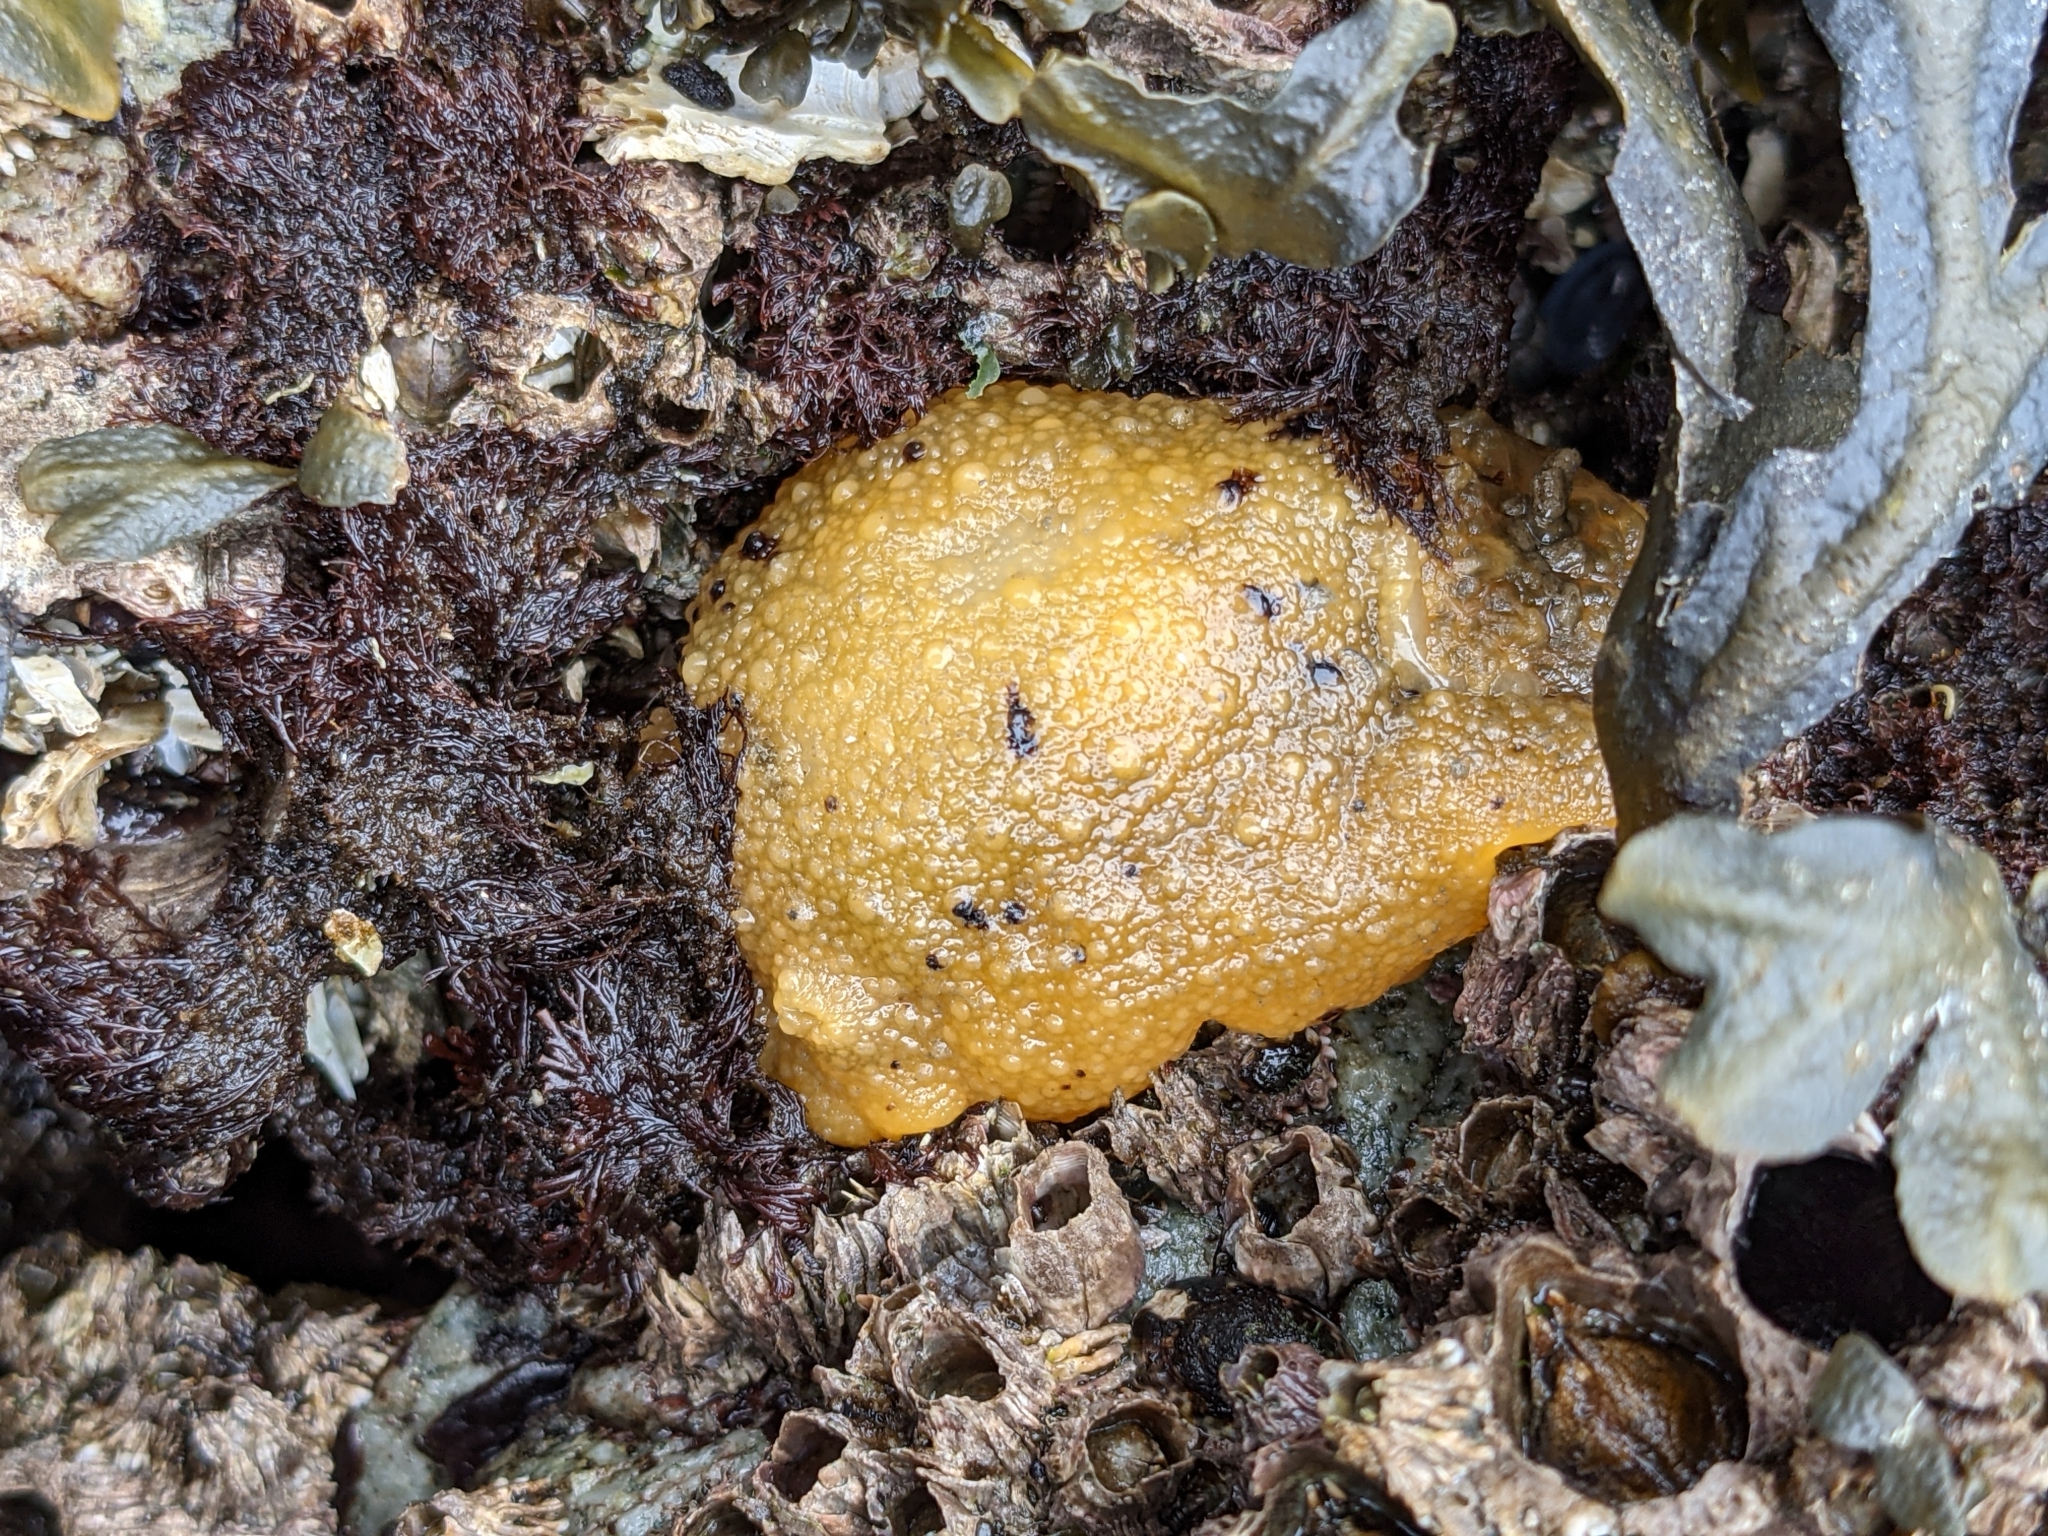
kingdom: Animalia
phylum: Mollusca
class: Gastropoda
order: Nudibranchia
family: Dorididae
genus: Doris
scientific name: Doris montereyensis
